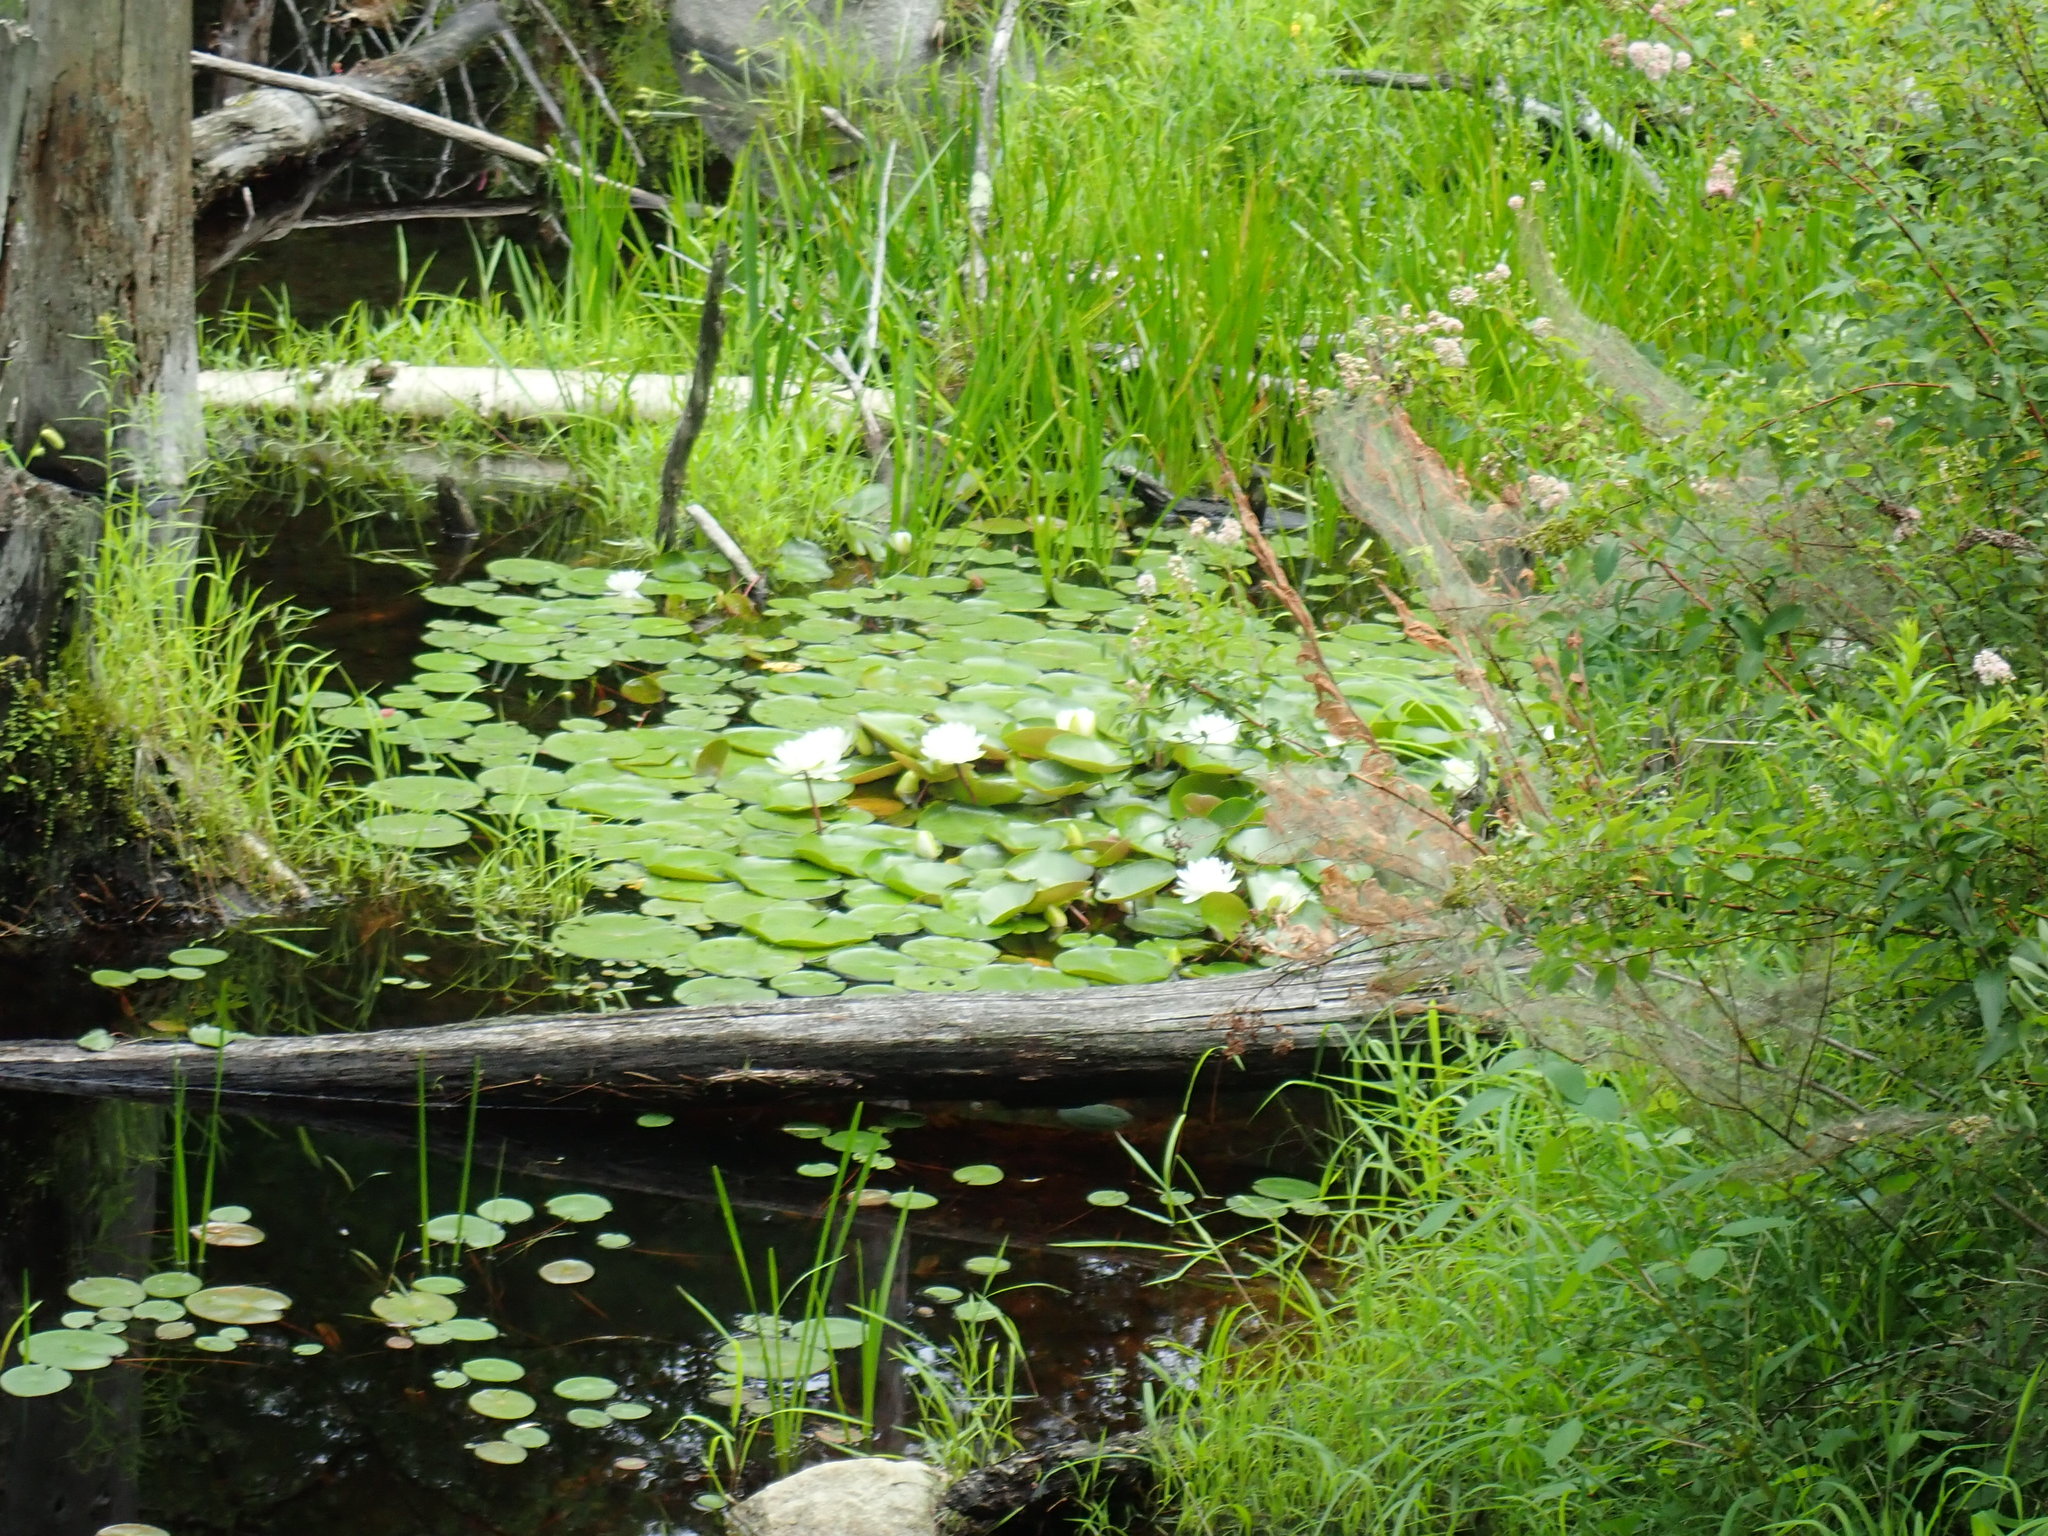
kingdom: Plantae
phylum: Tracheophyta
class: Magnoliopsida
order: Nymphaeales
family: Nymphaeaceae
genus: Nymphaea
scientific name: Nymphaea odorata
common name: Fragrant water-lily
